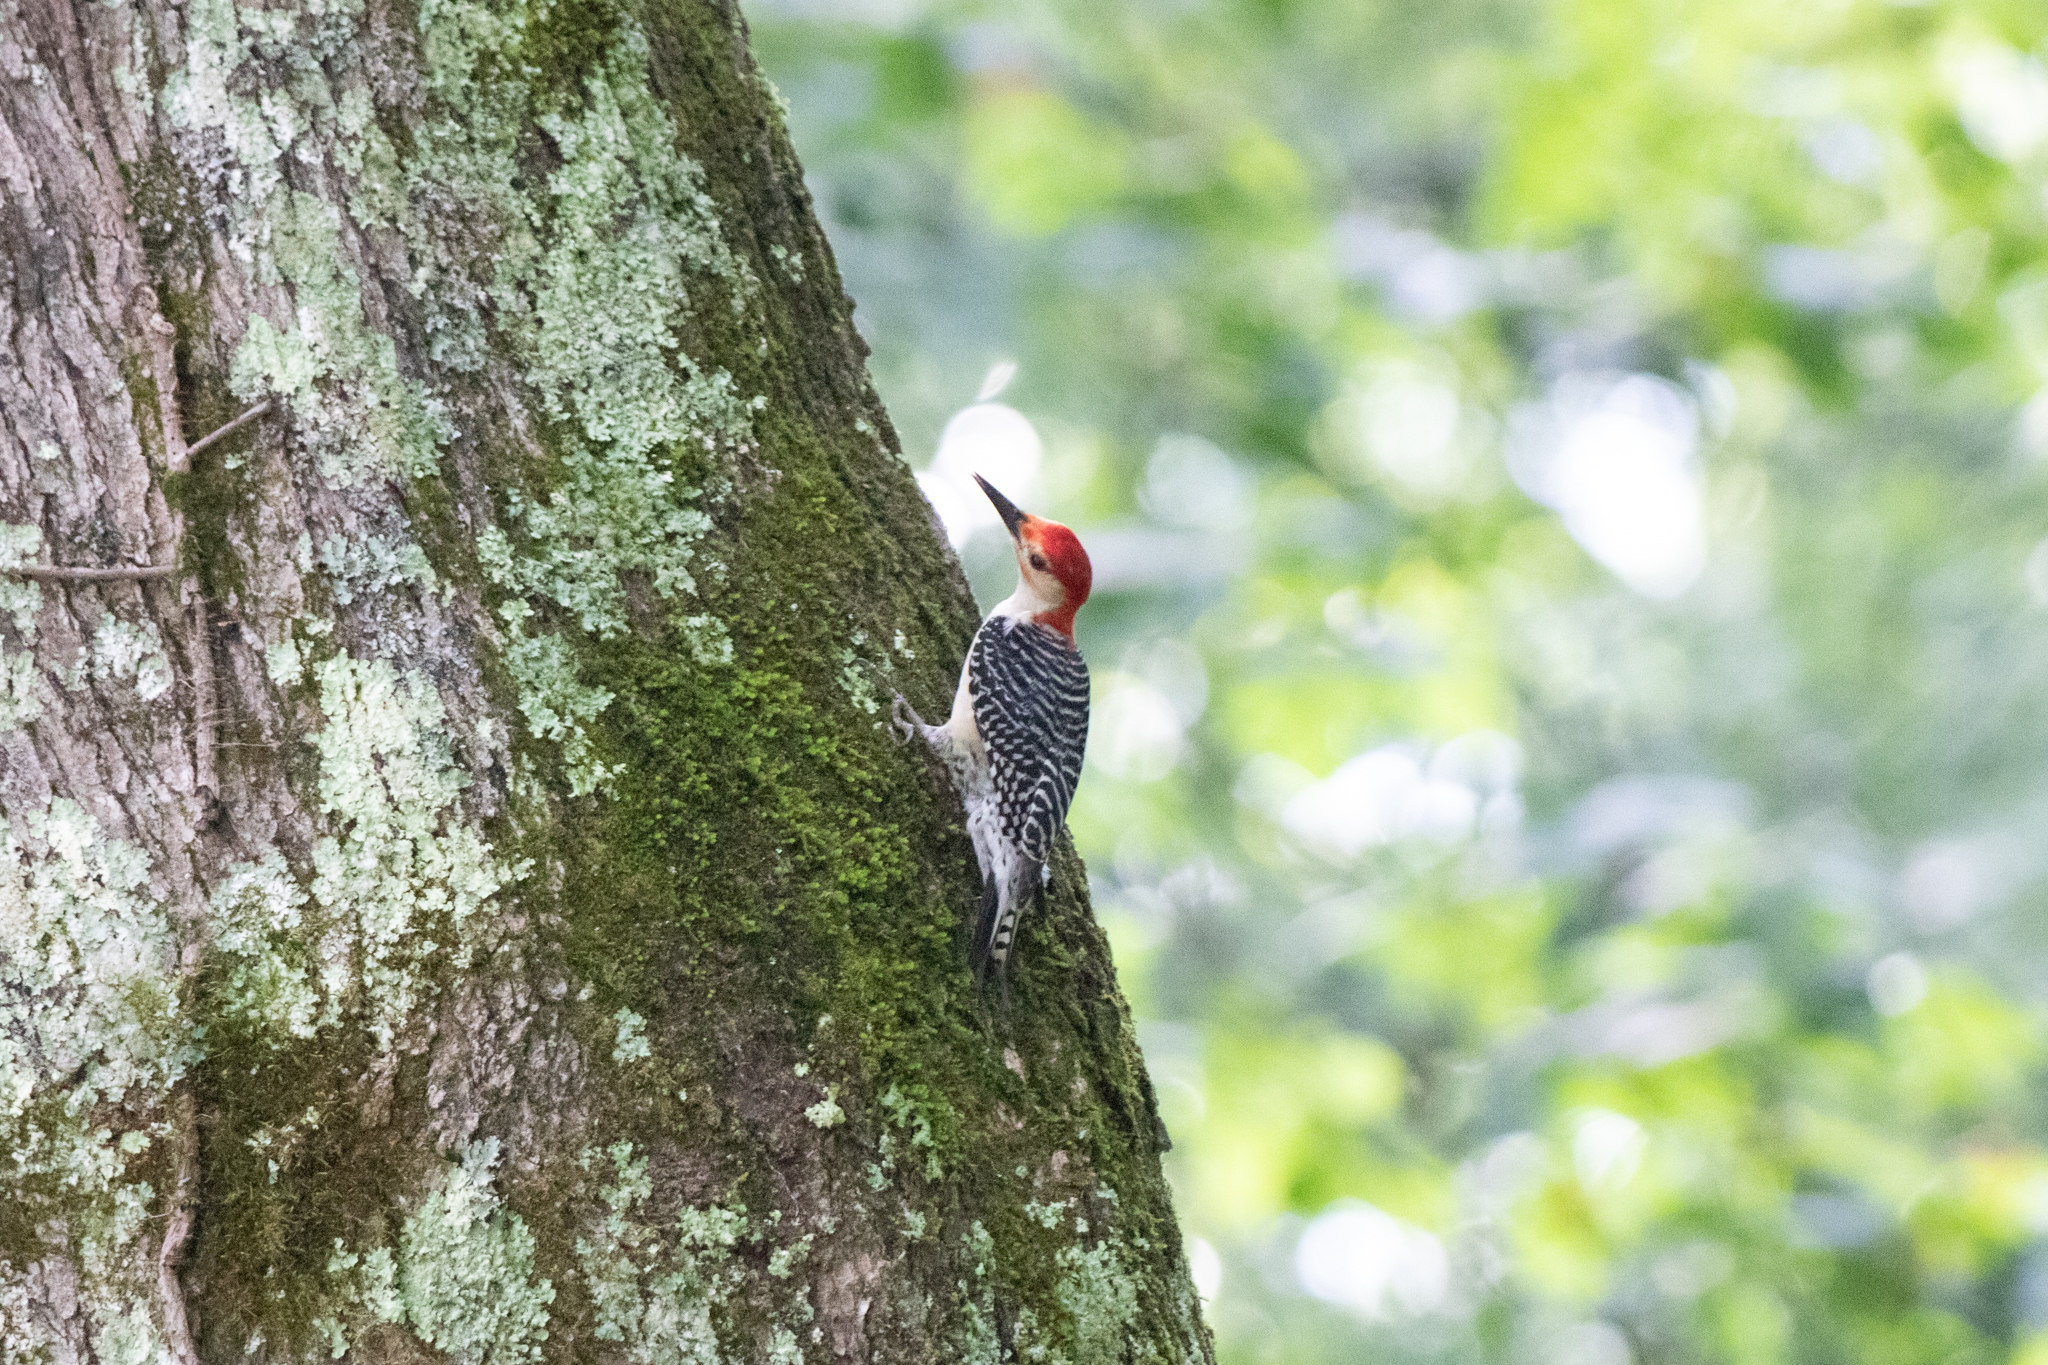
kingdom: Animalia
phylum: Chordata
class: Aves
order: Piciformes
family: Picidae
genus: Melanerpes
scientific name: Melanerpes carolinus
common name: Red-bellied woodpecker
